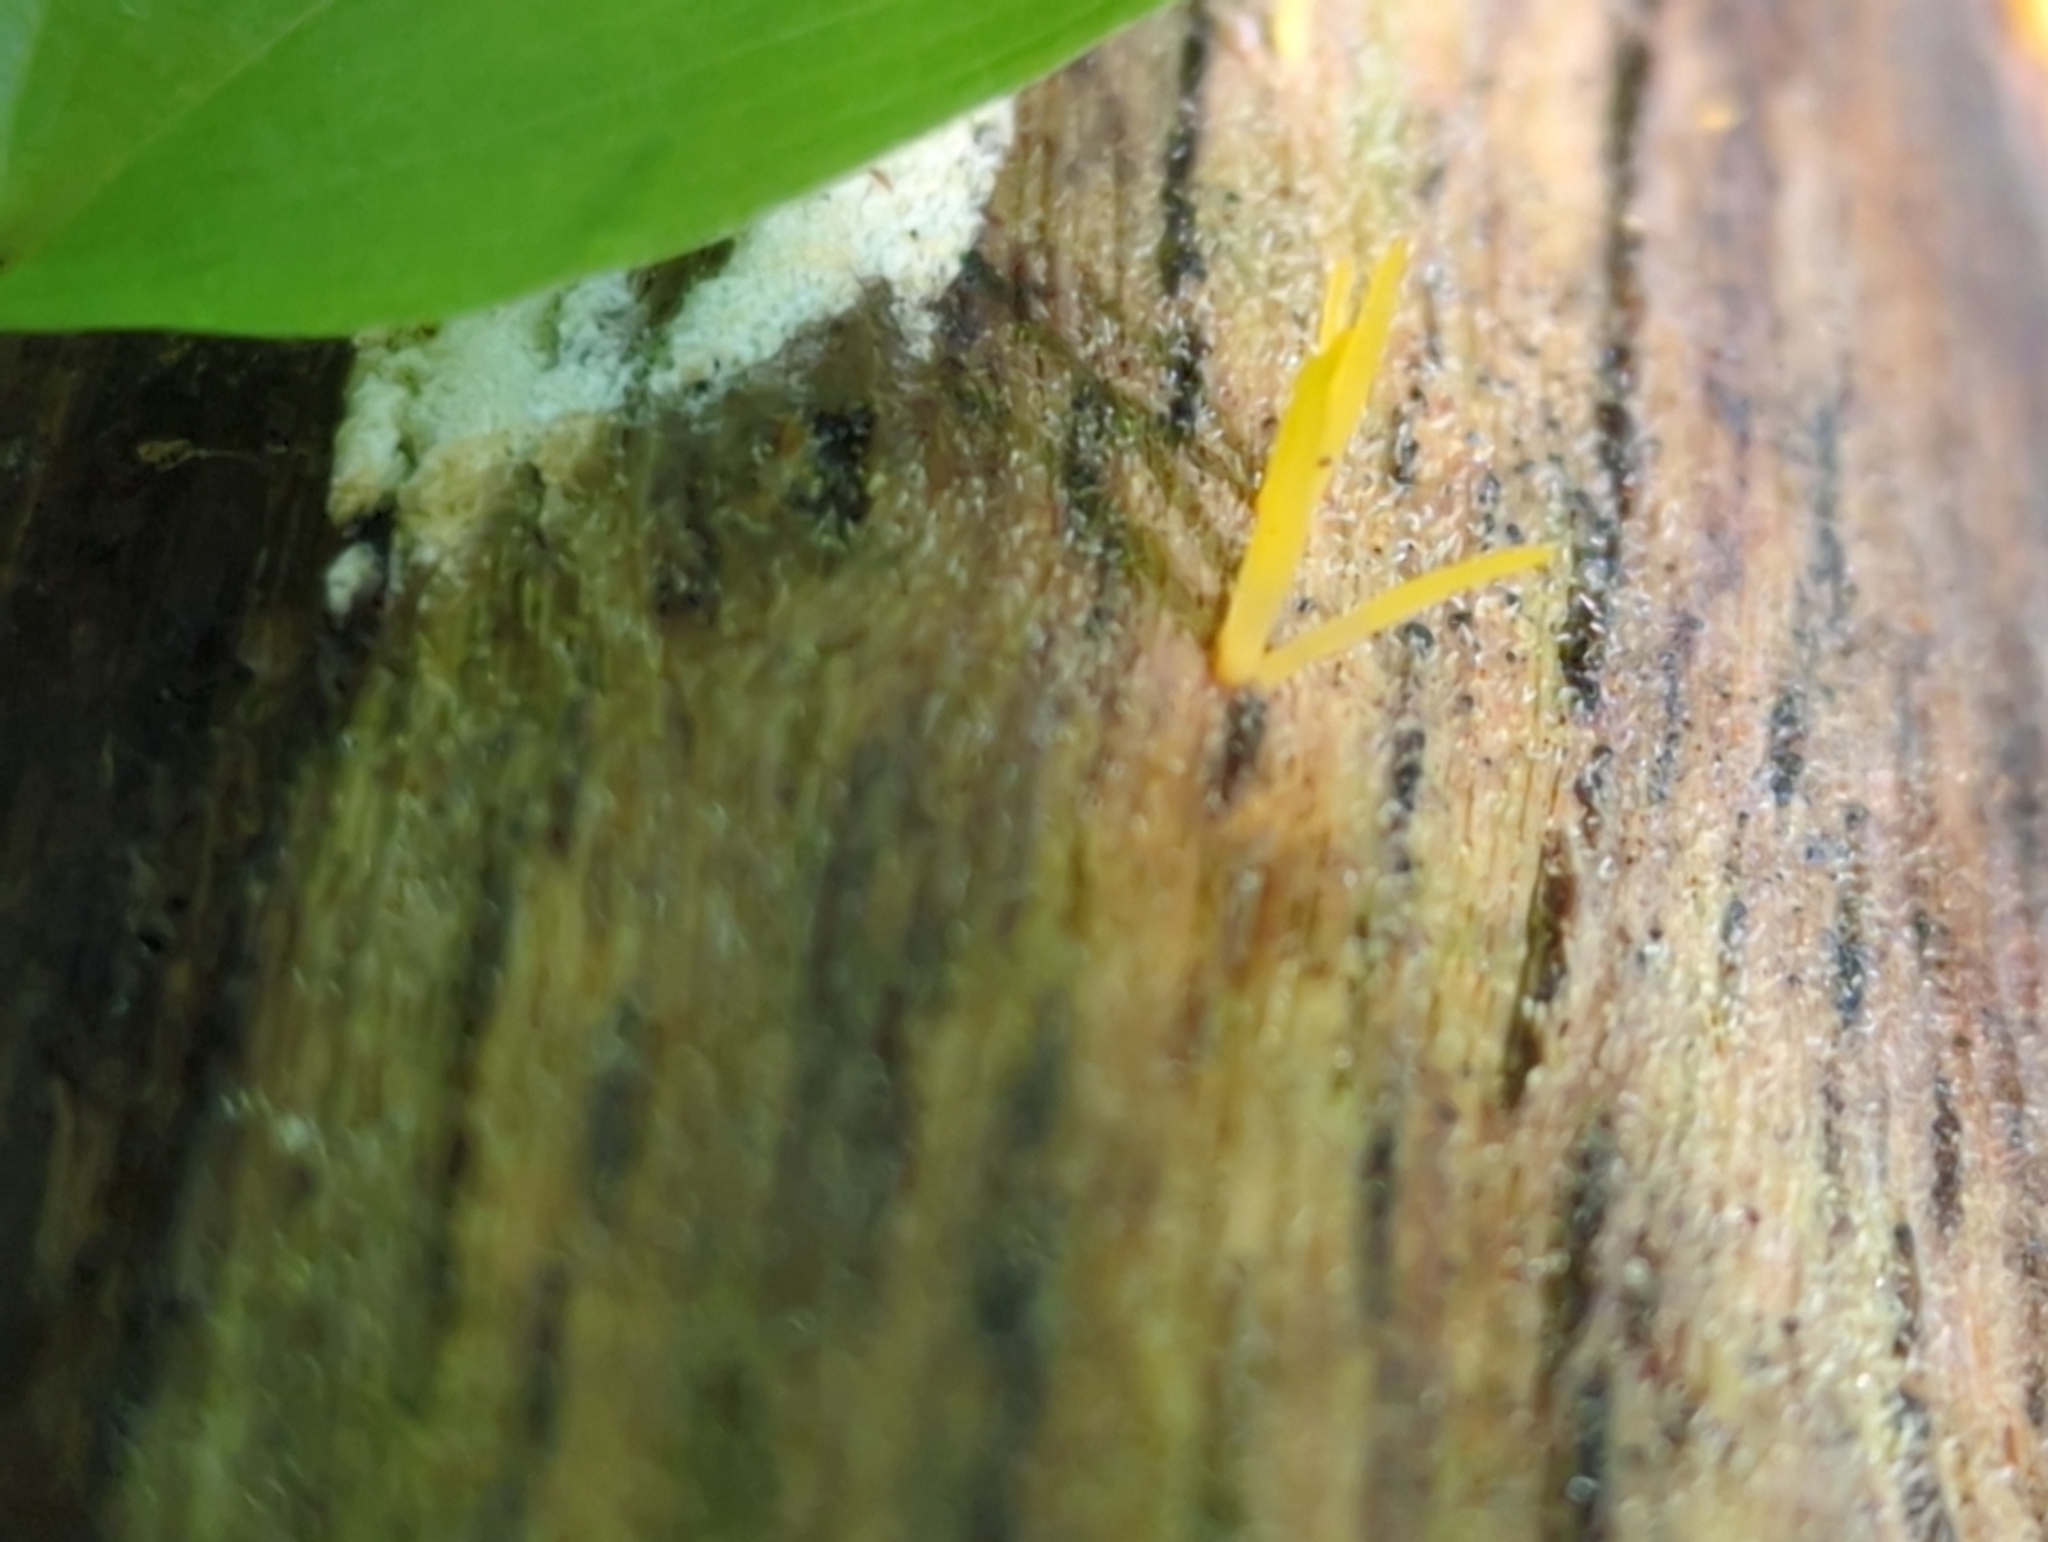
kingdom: Fungi
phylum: Basidiomycota
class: Dacrymycetes
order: Dacrymycetales
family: Dacrymycetaceae
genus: Calocera
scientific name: Calocera cornea
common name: Small stagshorn
